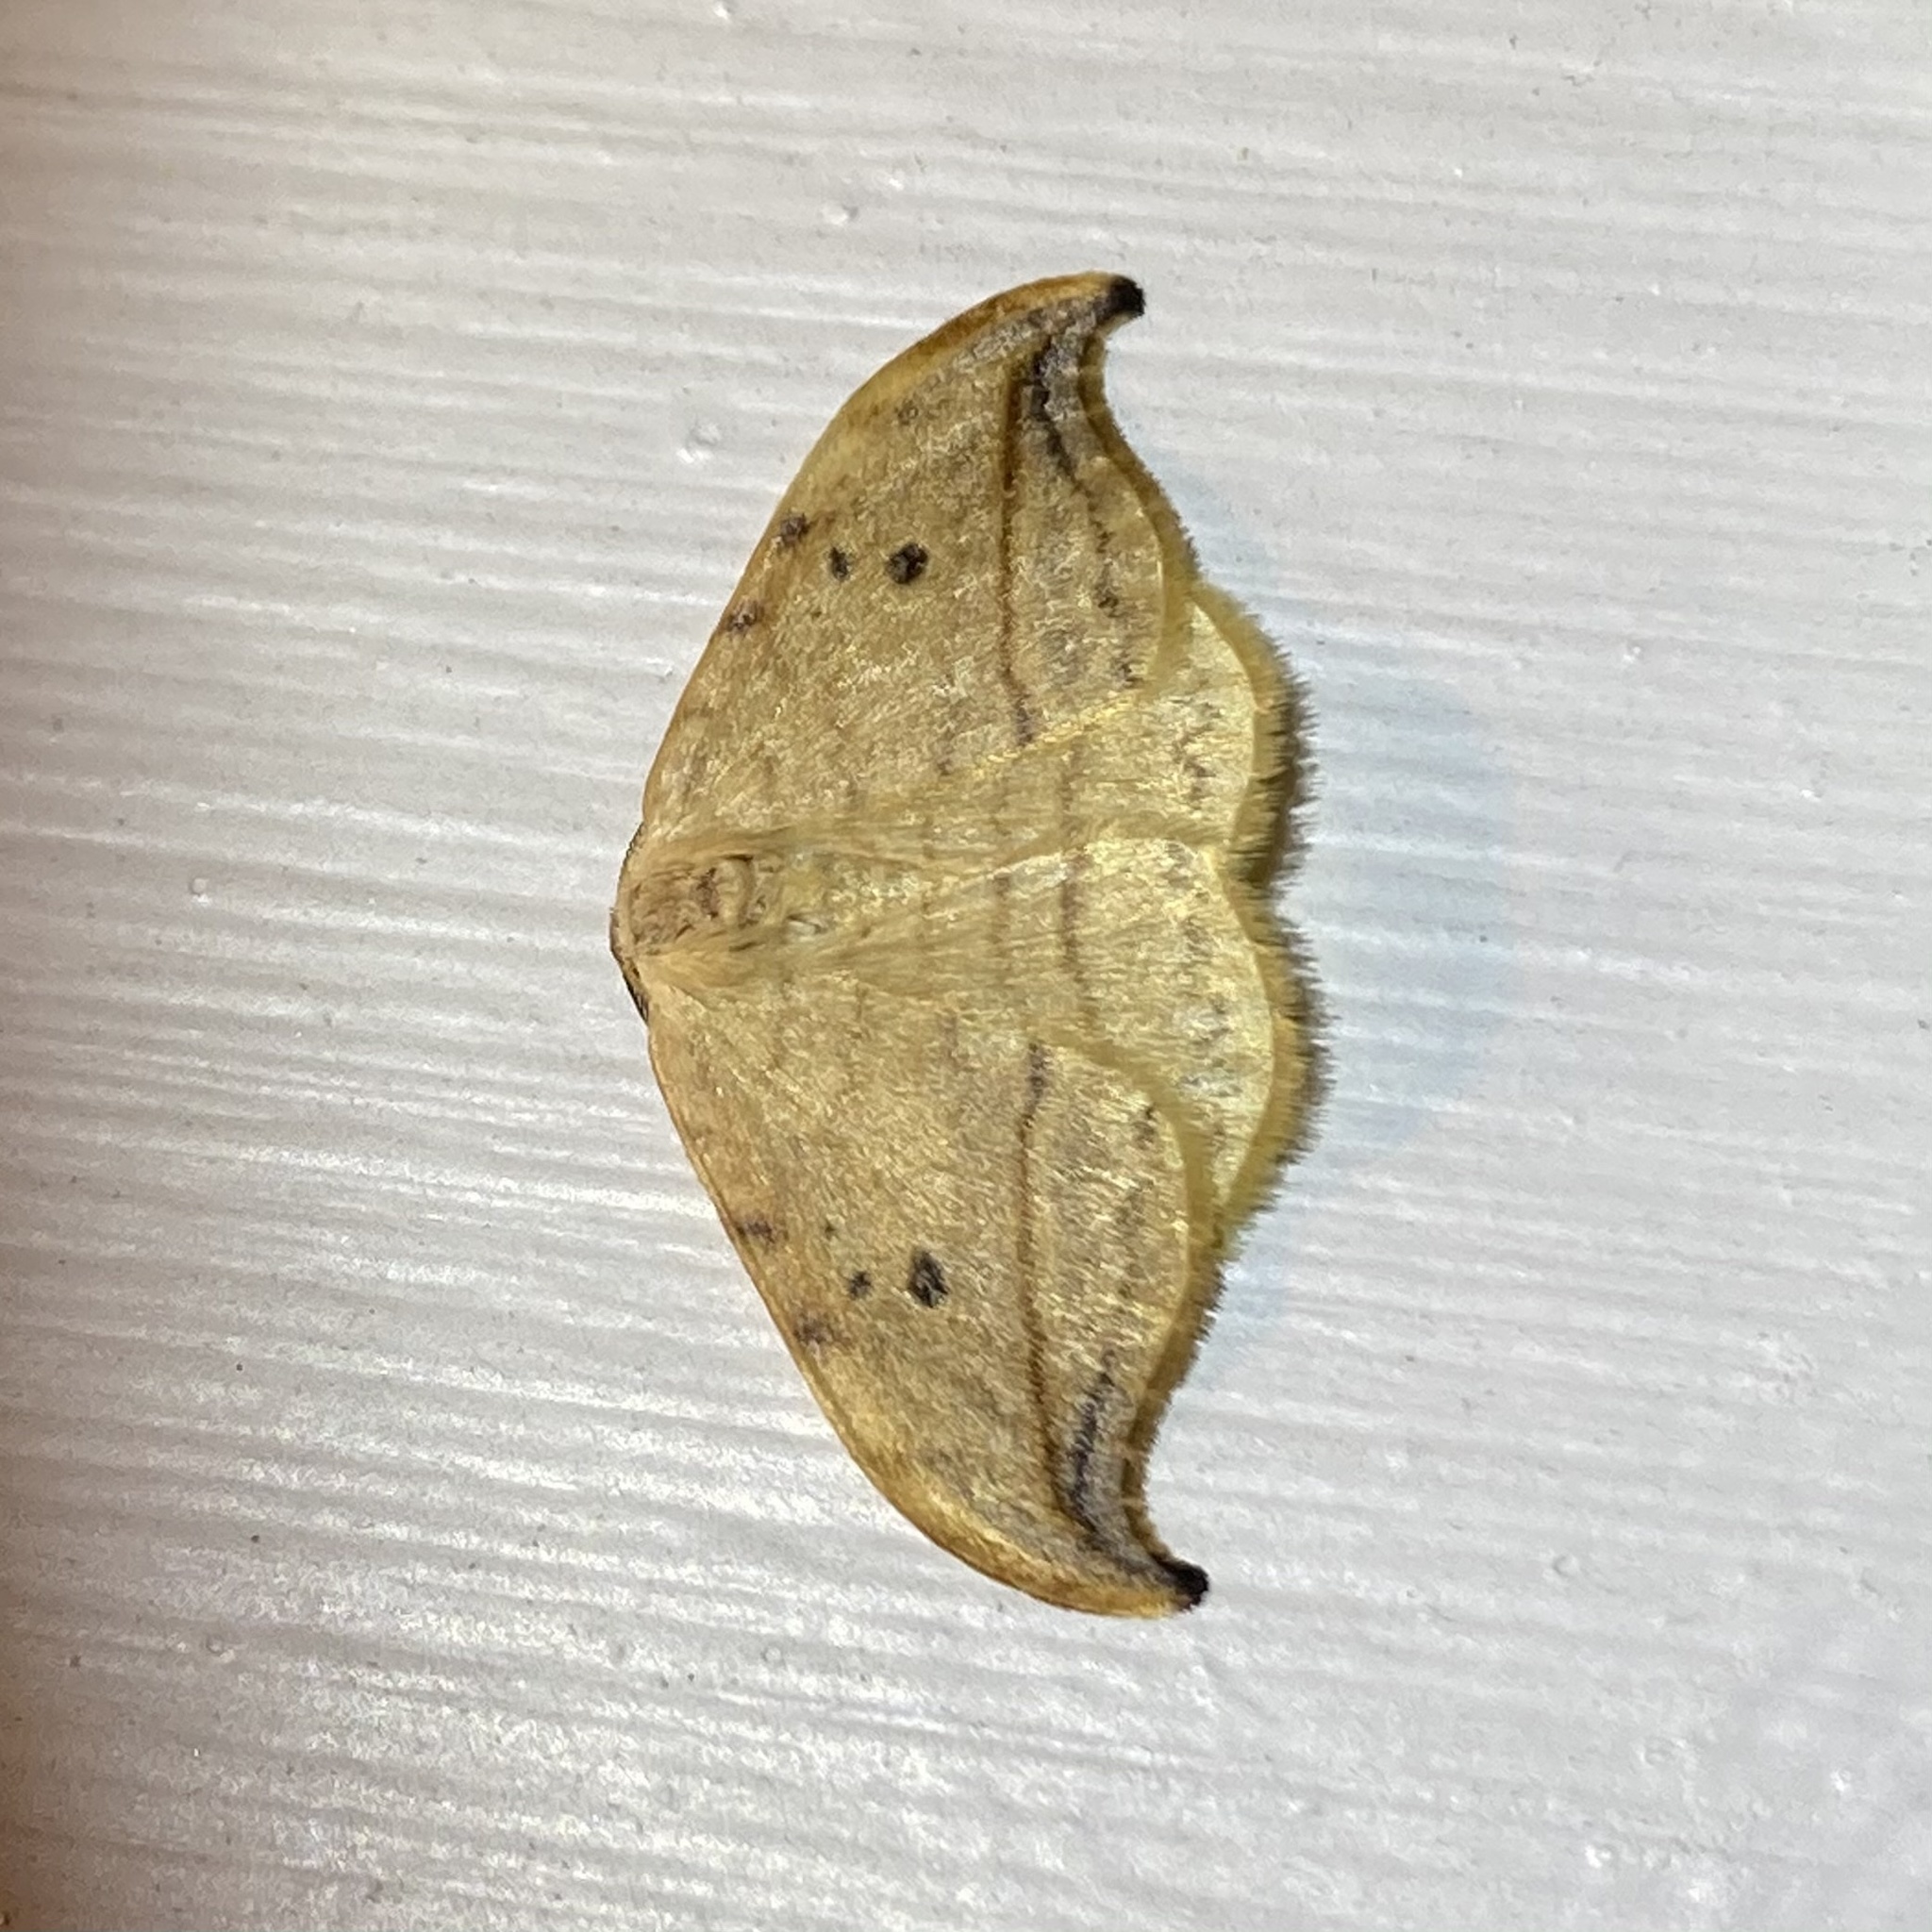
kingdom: Animalia
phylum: Arthropoda
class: Insecta
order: Lepidoptera
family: Drepanidae
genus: Drepana
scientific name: Drepana arcuata
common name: Arched hooktip moth
